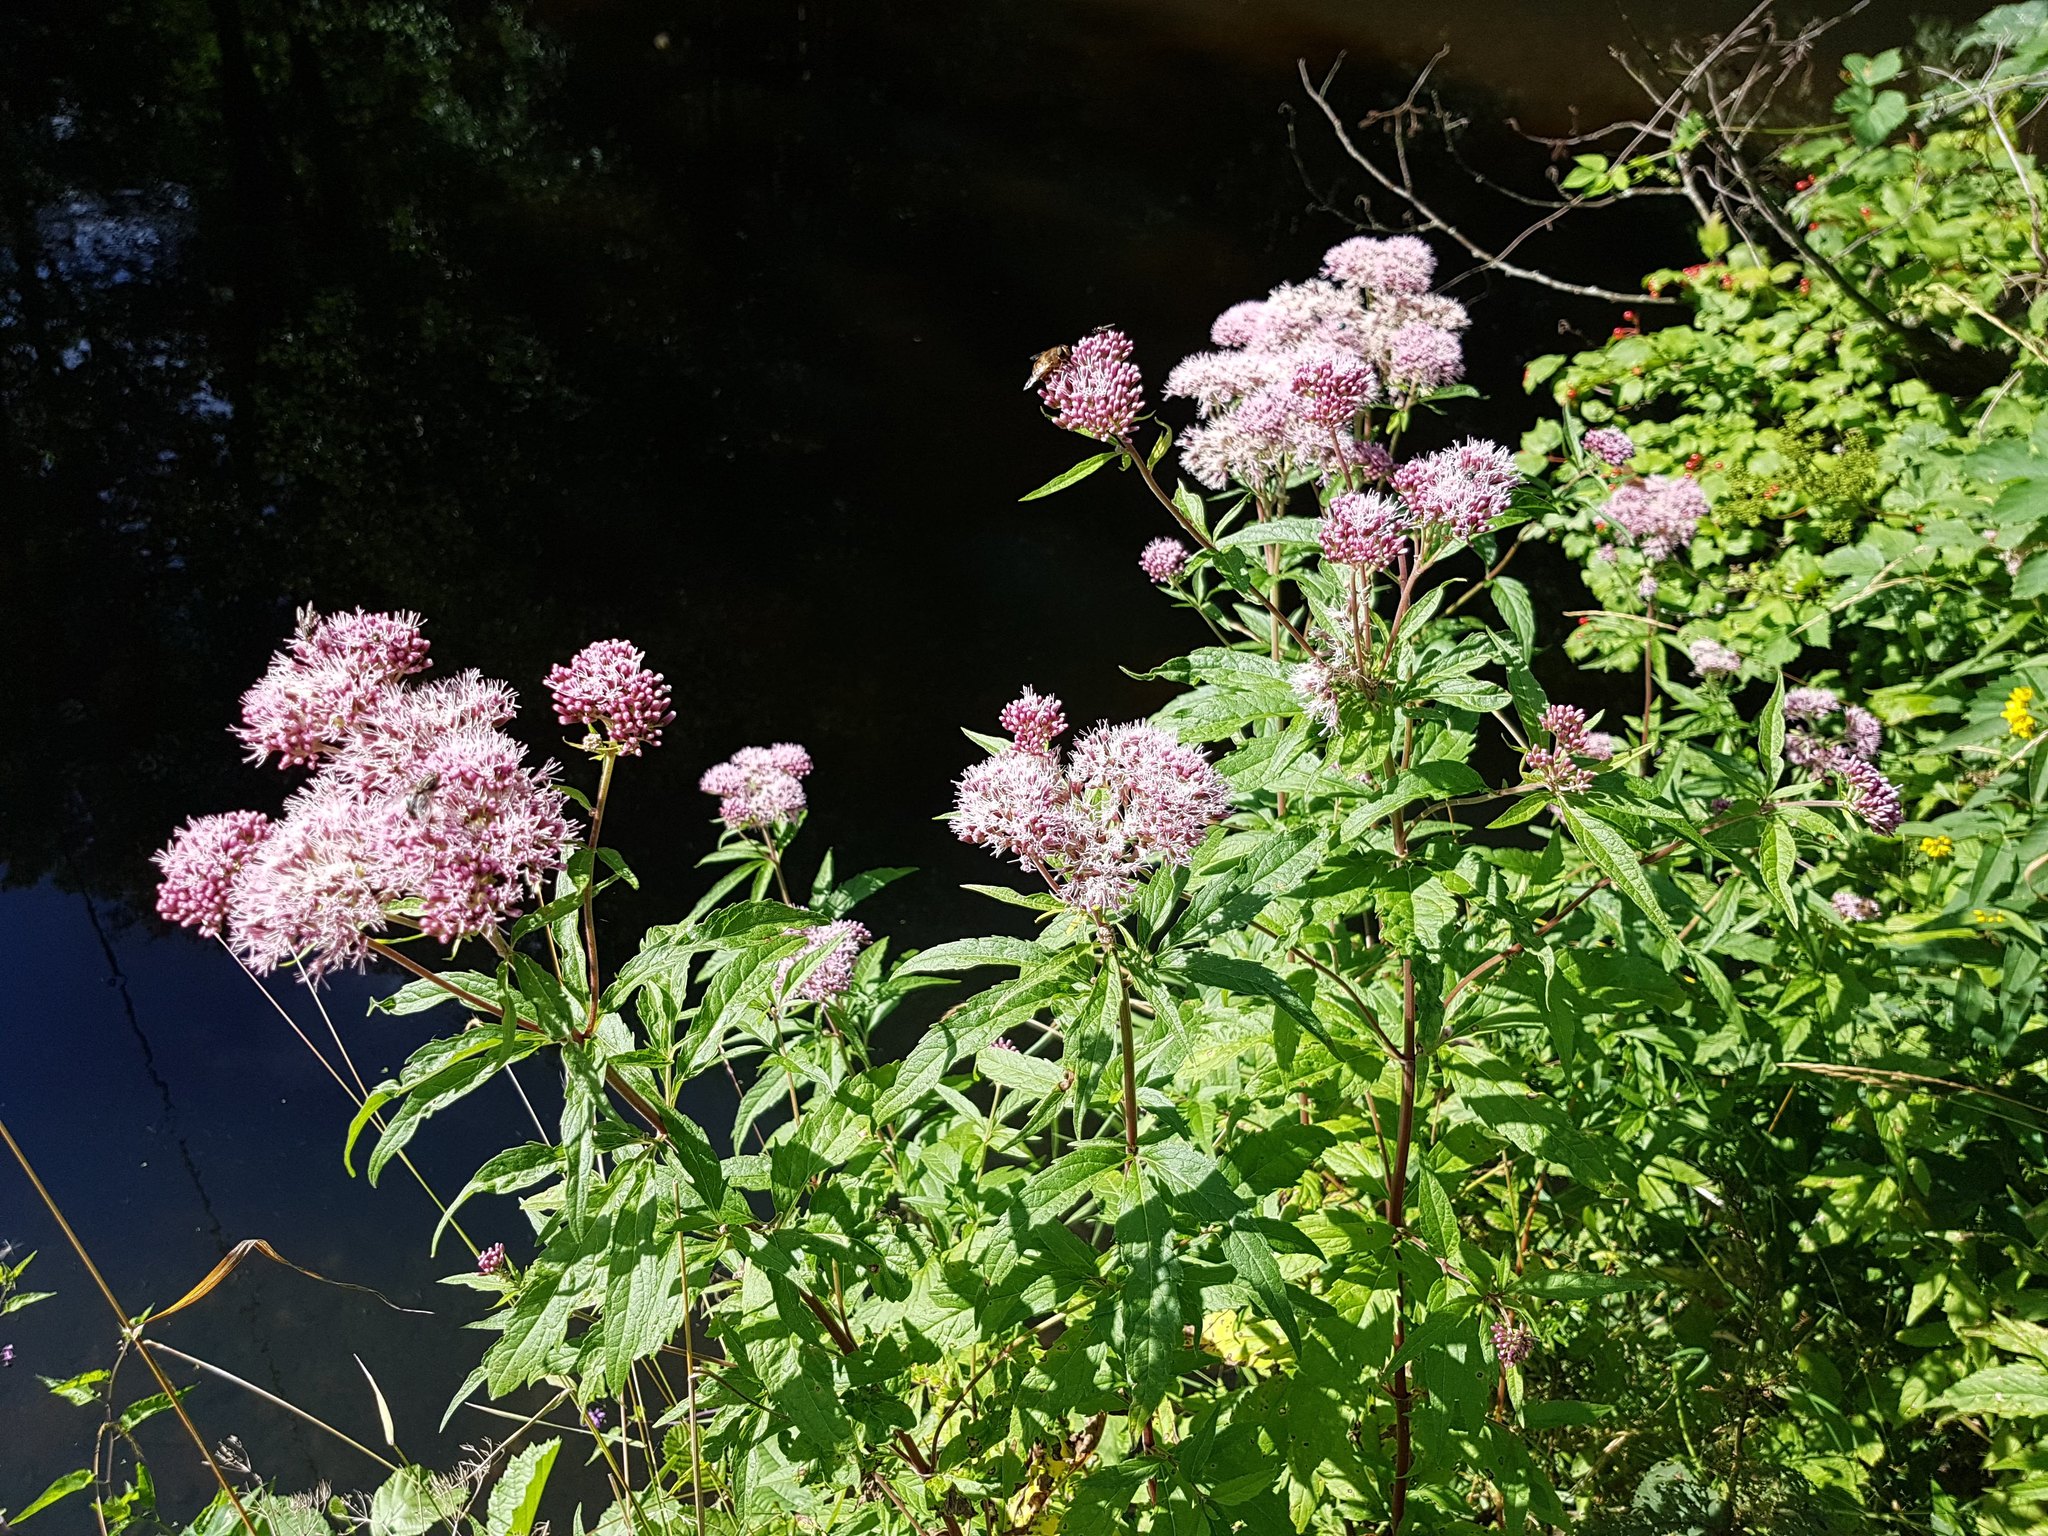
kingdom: Plantae
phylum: Tracheophyta
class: Magnoliopsida
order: Asterales
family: Asteraceae
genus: Eupatorium
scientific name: Eupatorium cannabinum
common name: Hemp-agrimony
